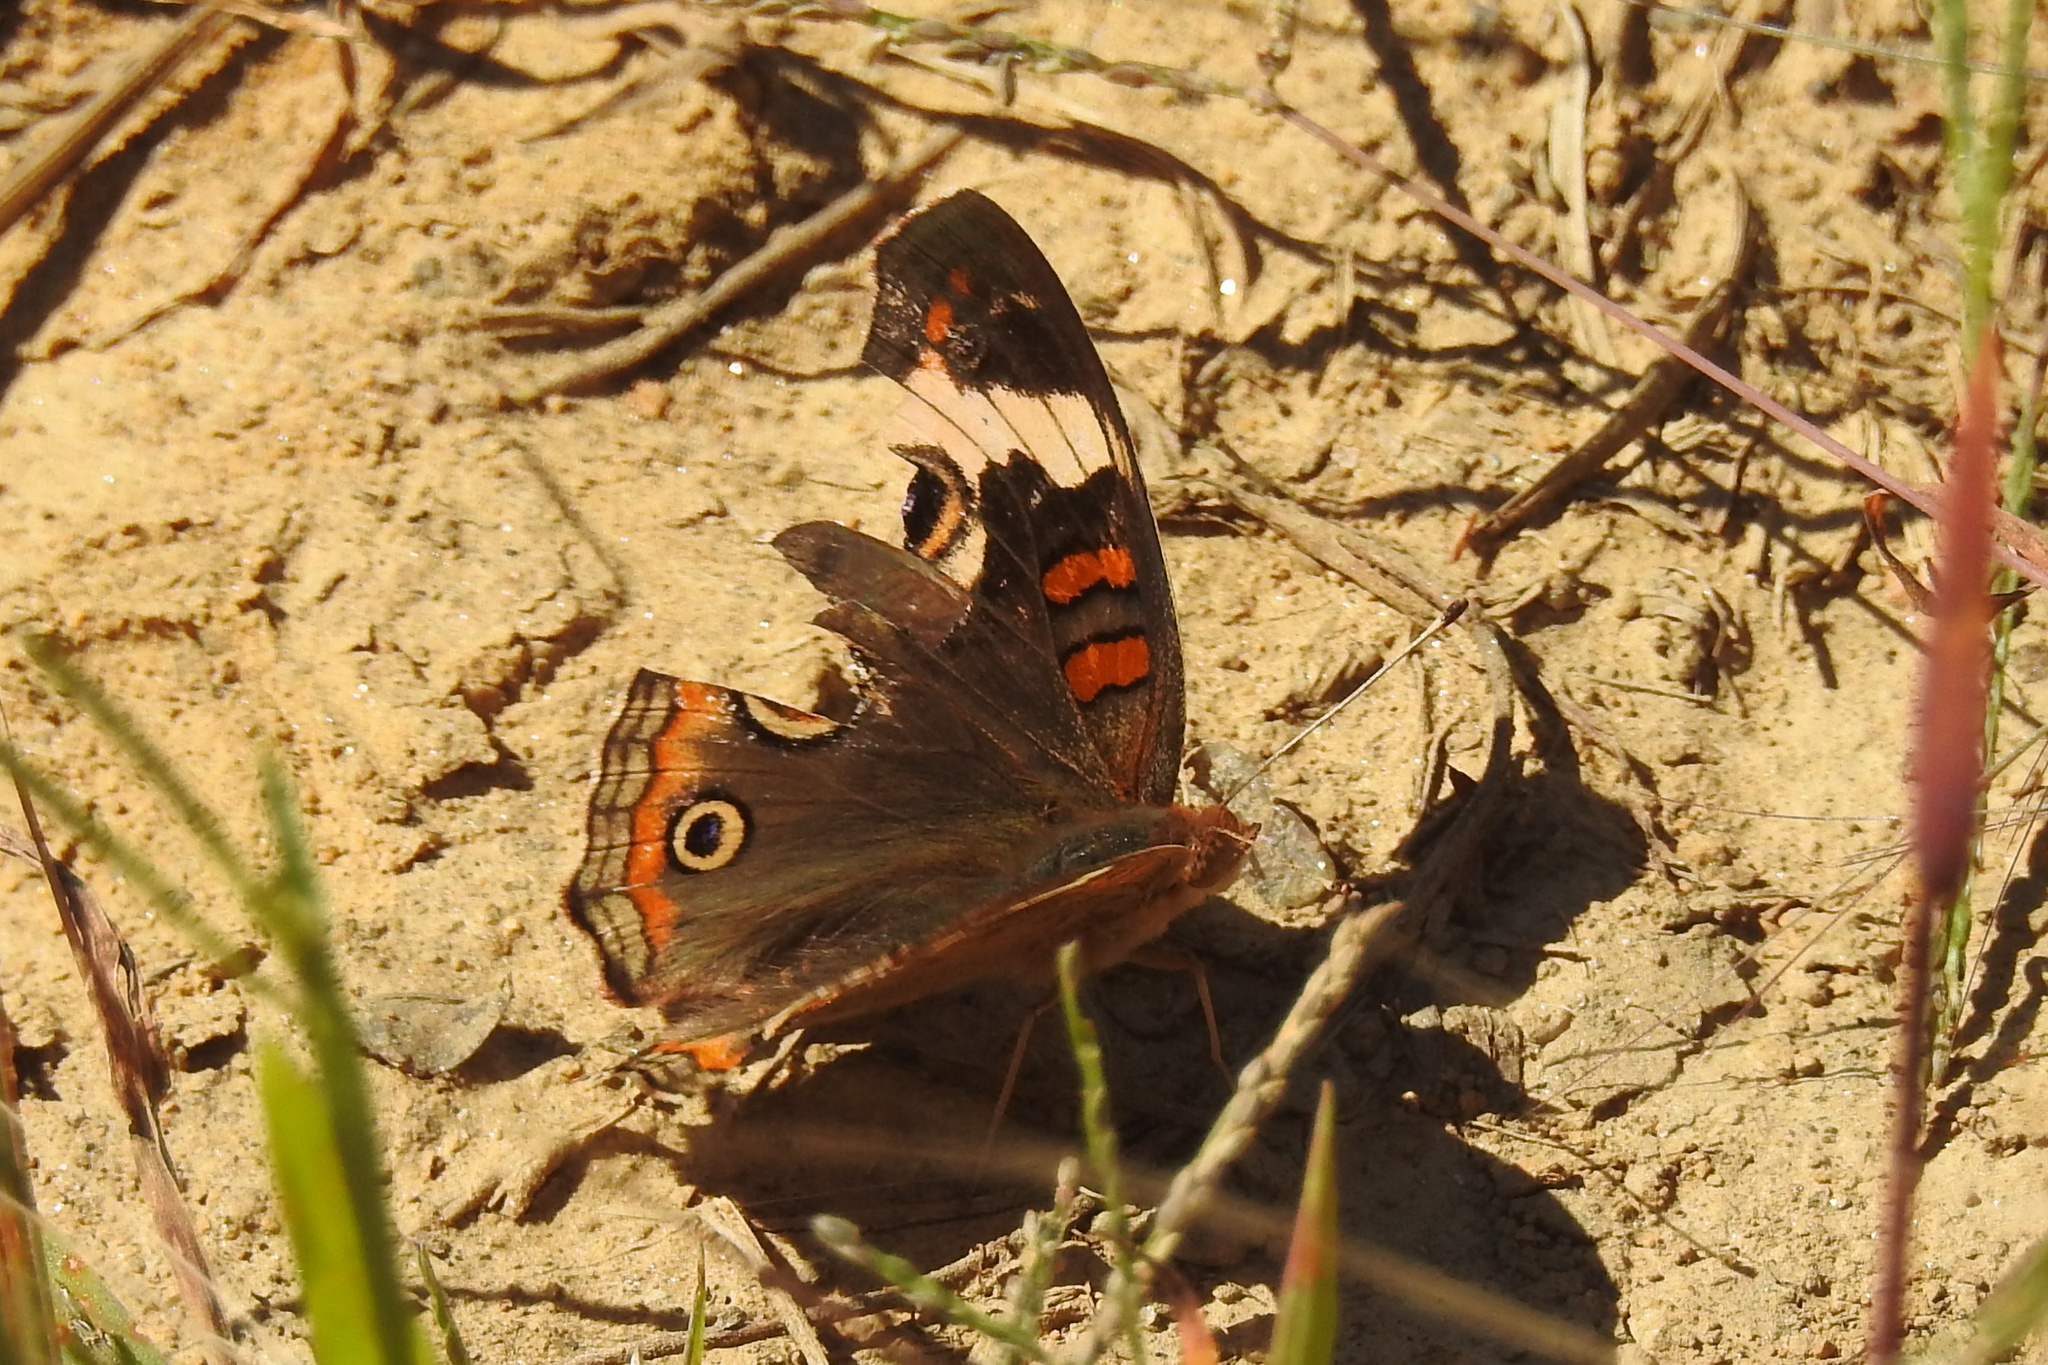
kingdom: Animalia
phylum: Arthropoda
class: Insecta
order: Lepidoptera
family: Nymphalidae
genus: Junonia
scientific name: Junonia coenia
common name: Common buckeye
